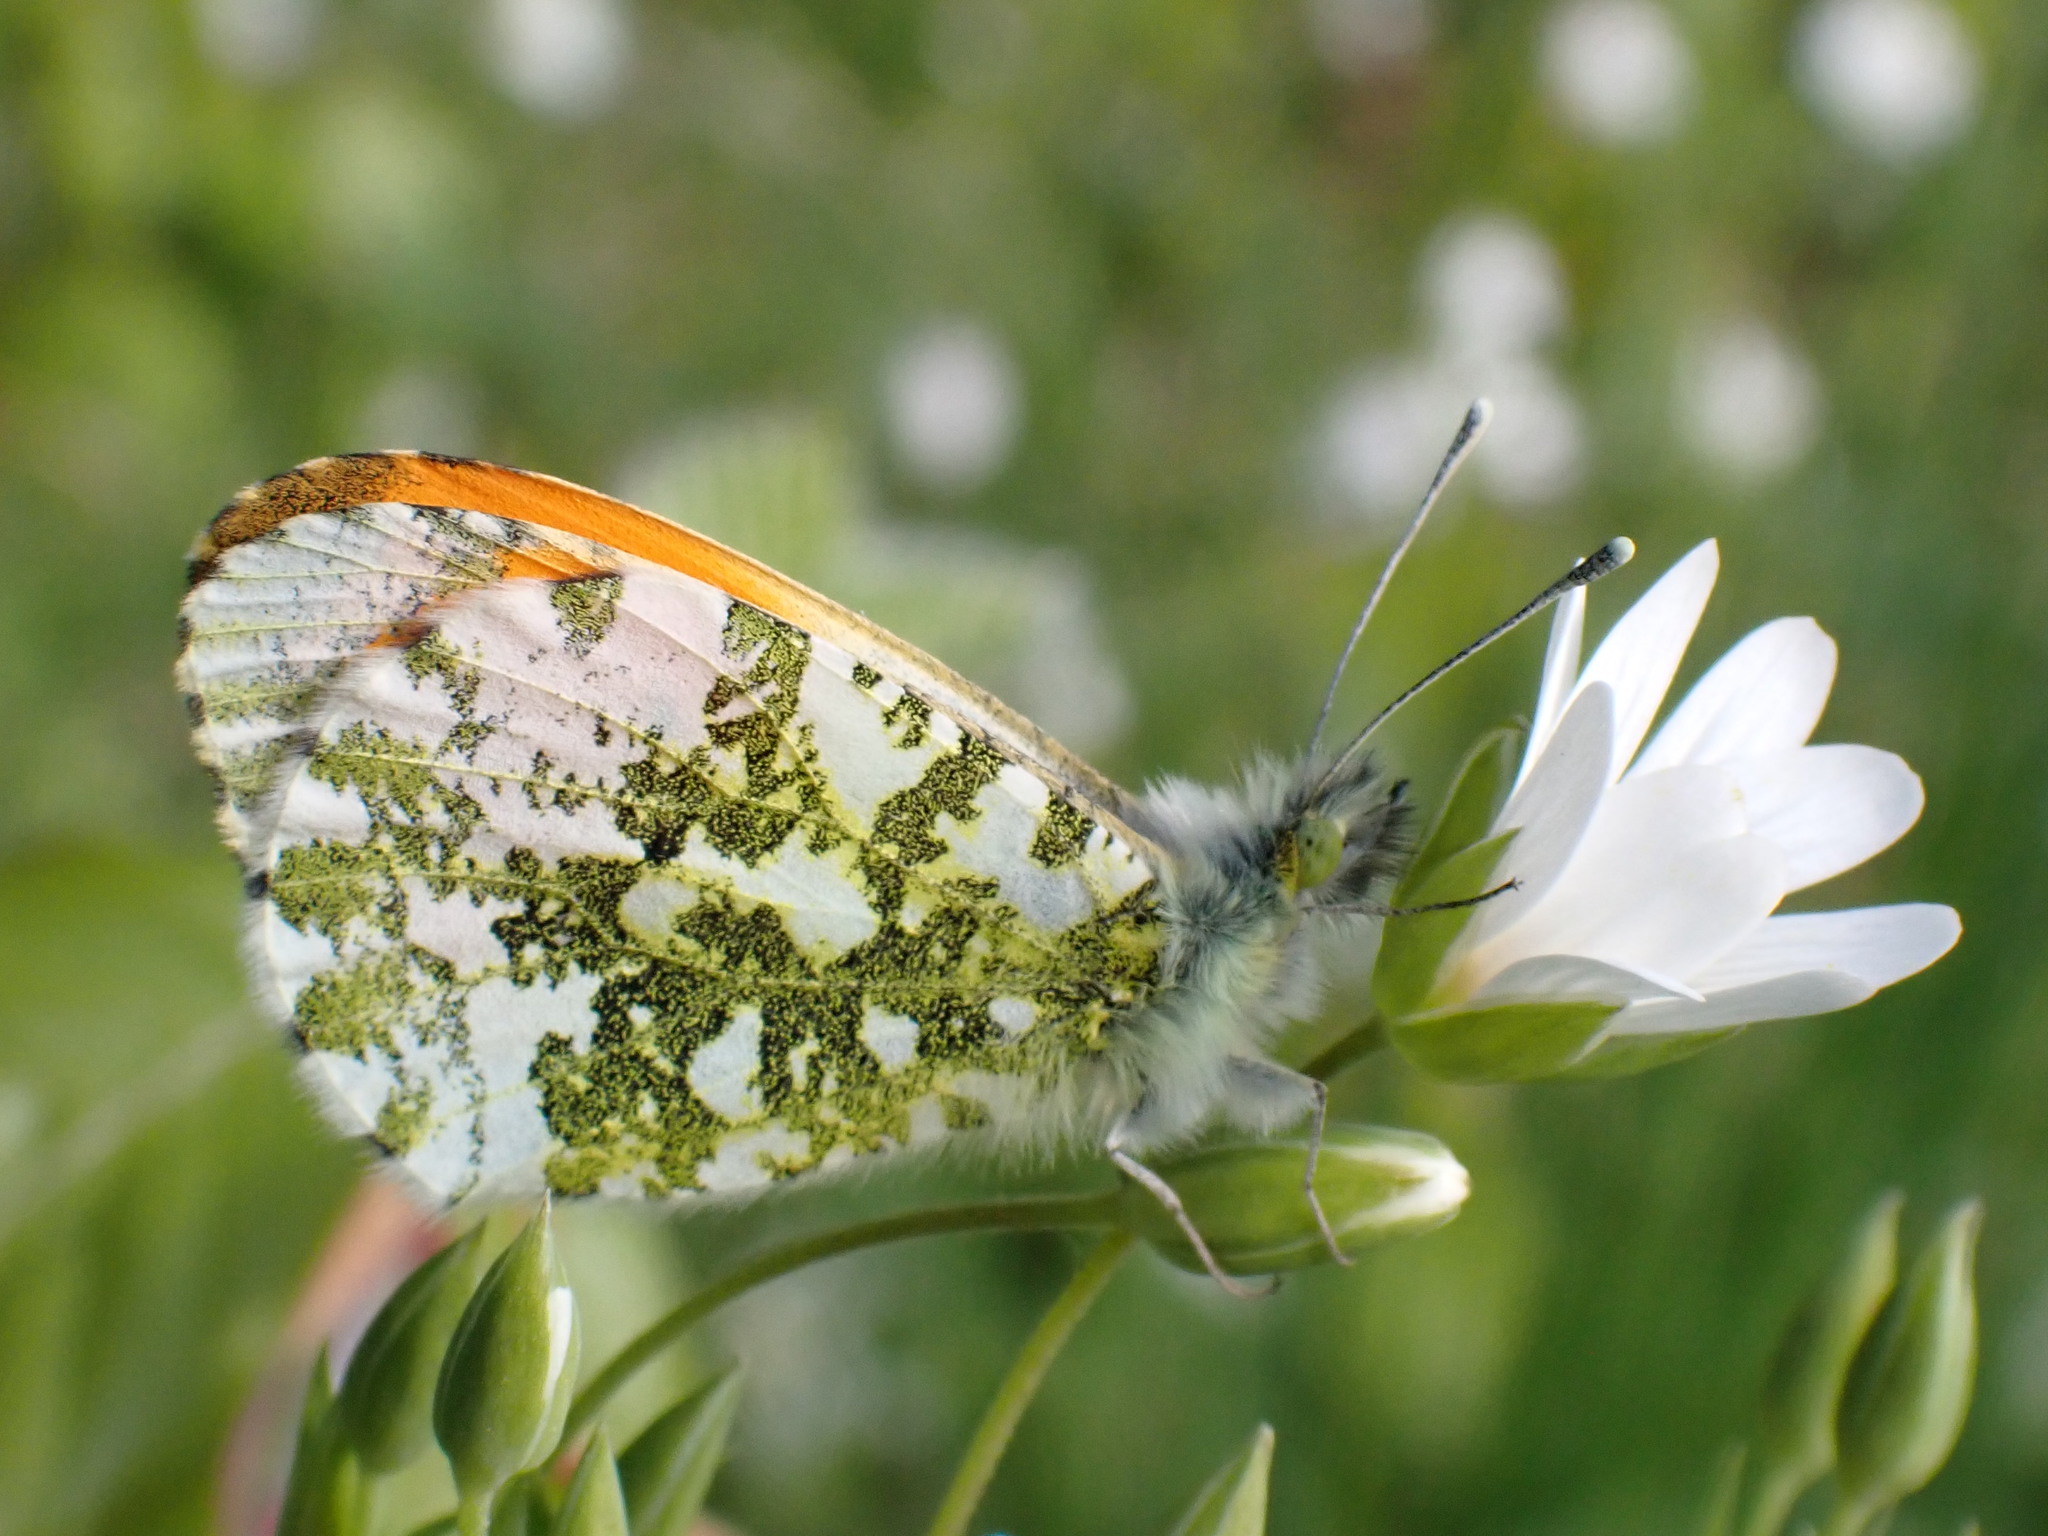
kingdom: Animalia
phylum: Arthropoda
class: Insecta
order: Lepidoptera
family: Pieridae
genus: Anthocharis
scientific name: Anthocharis cardamines
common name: Orange-tip
